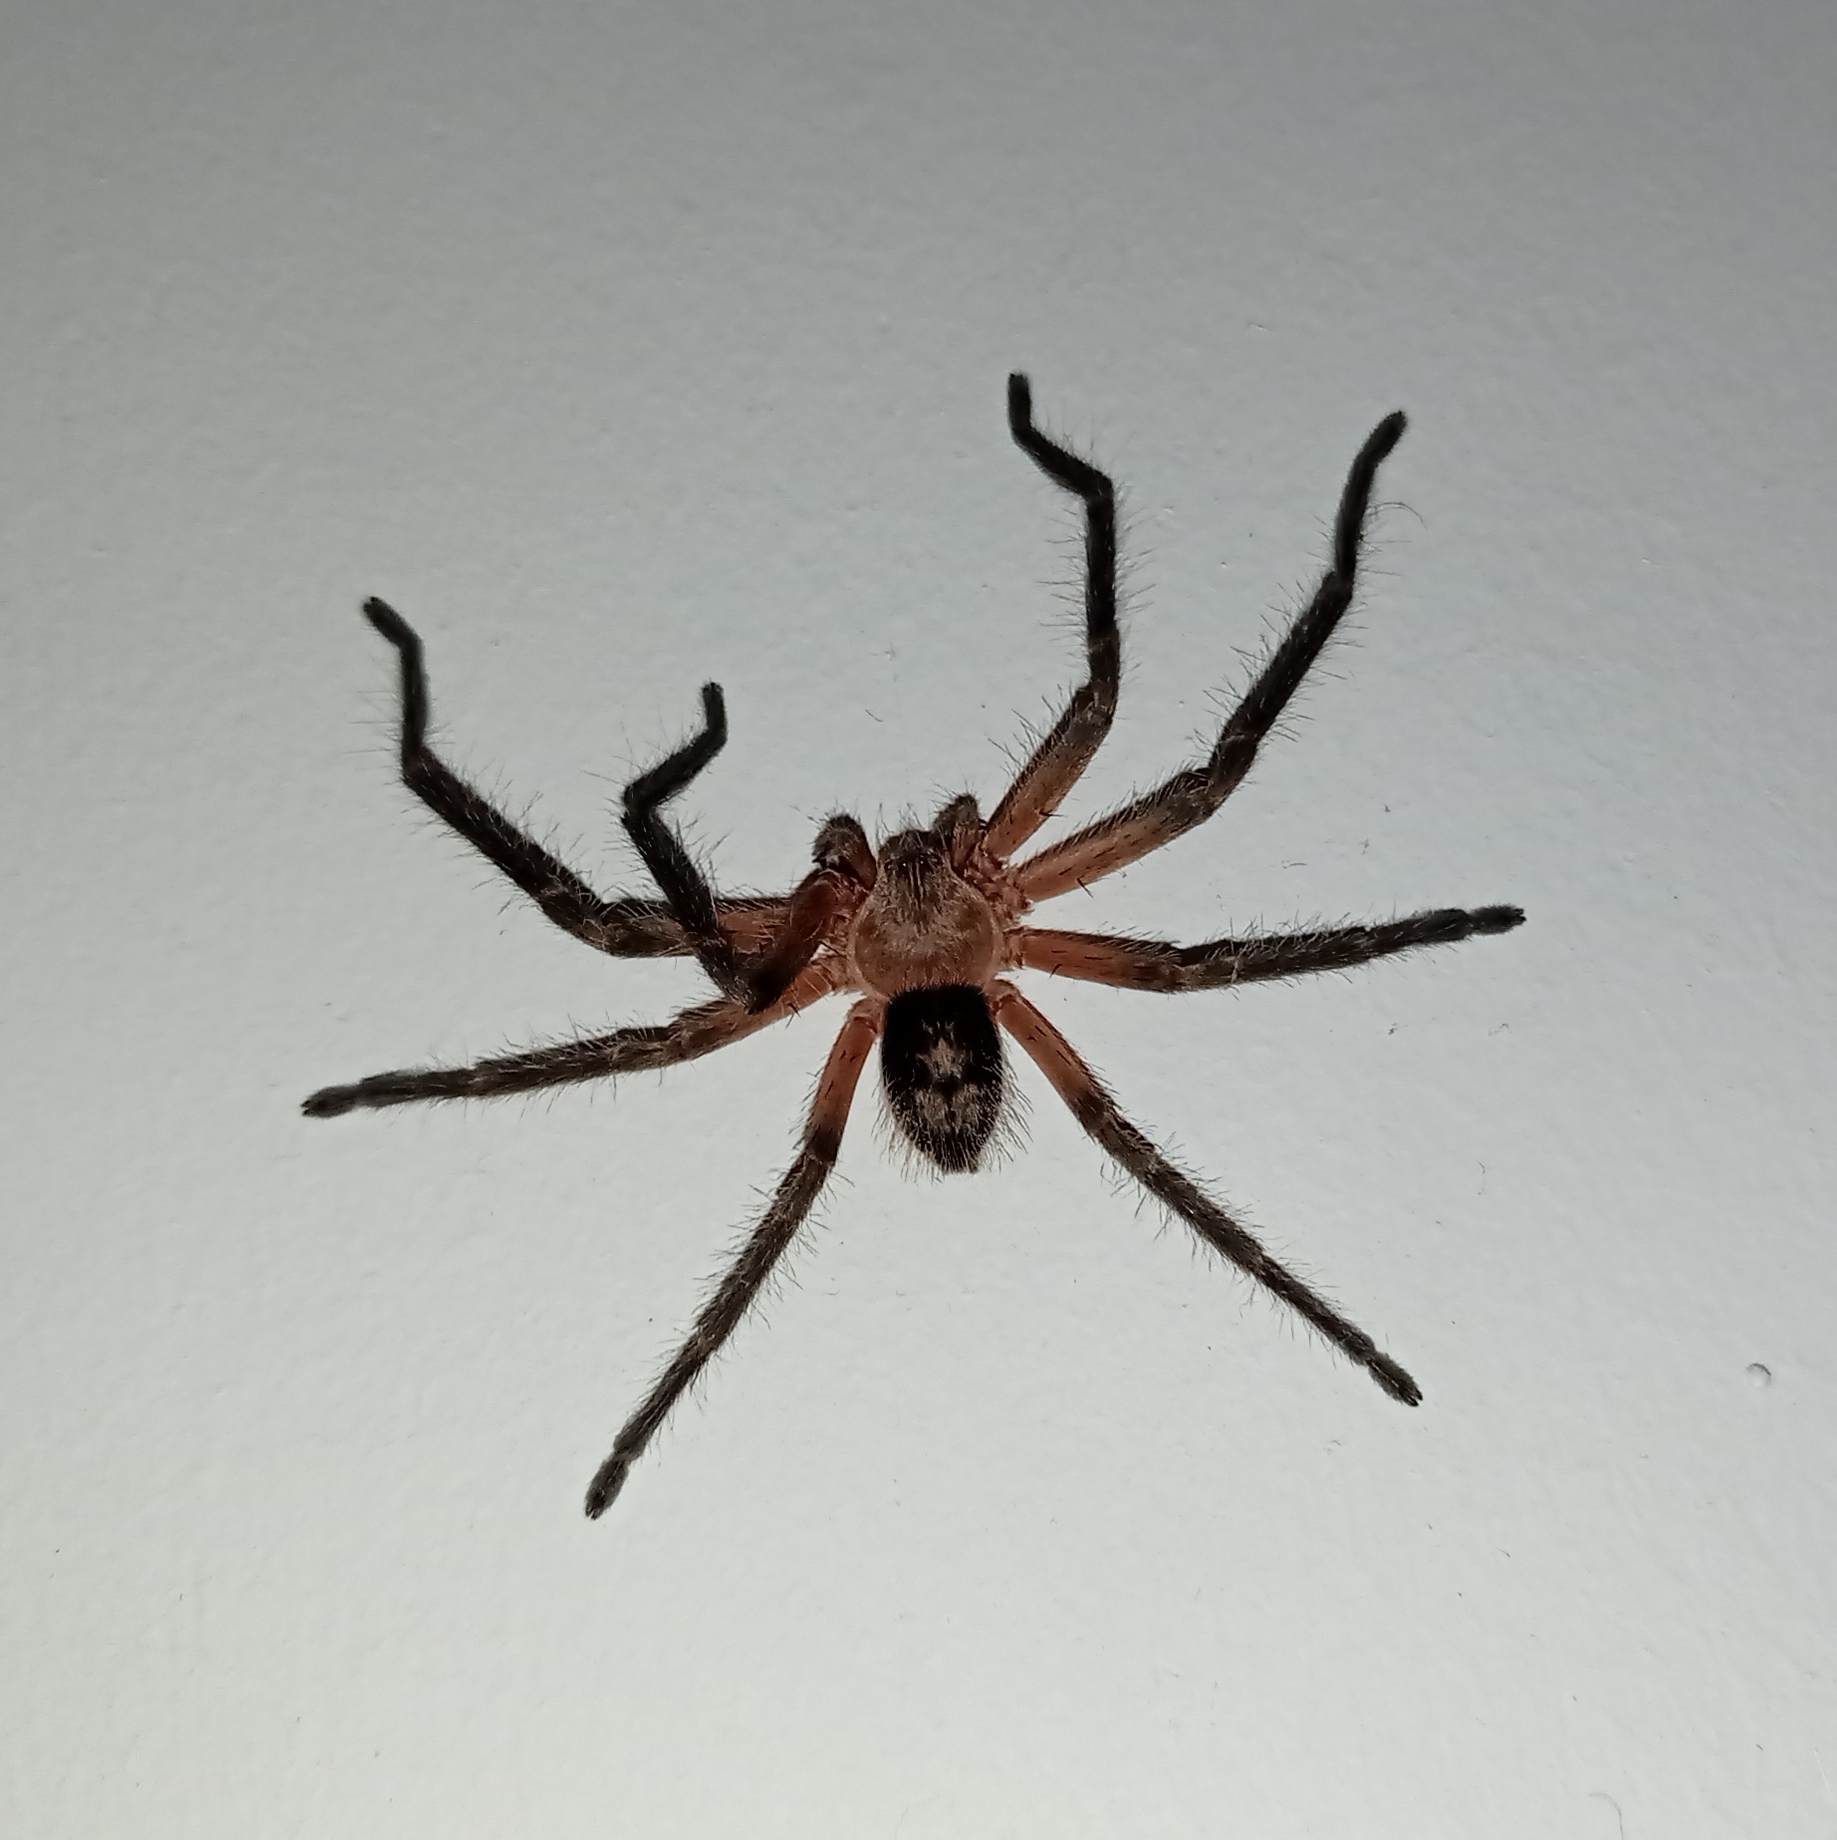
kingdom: Animalia
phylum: Arthropoda
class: Arachnida
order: Araneae
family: Sparassidae
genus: Polybetes
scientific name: Polybetes martius
